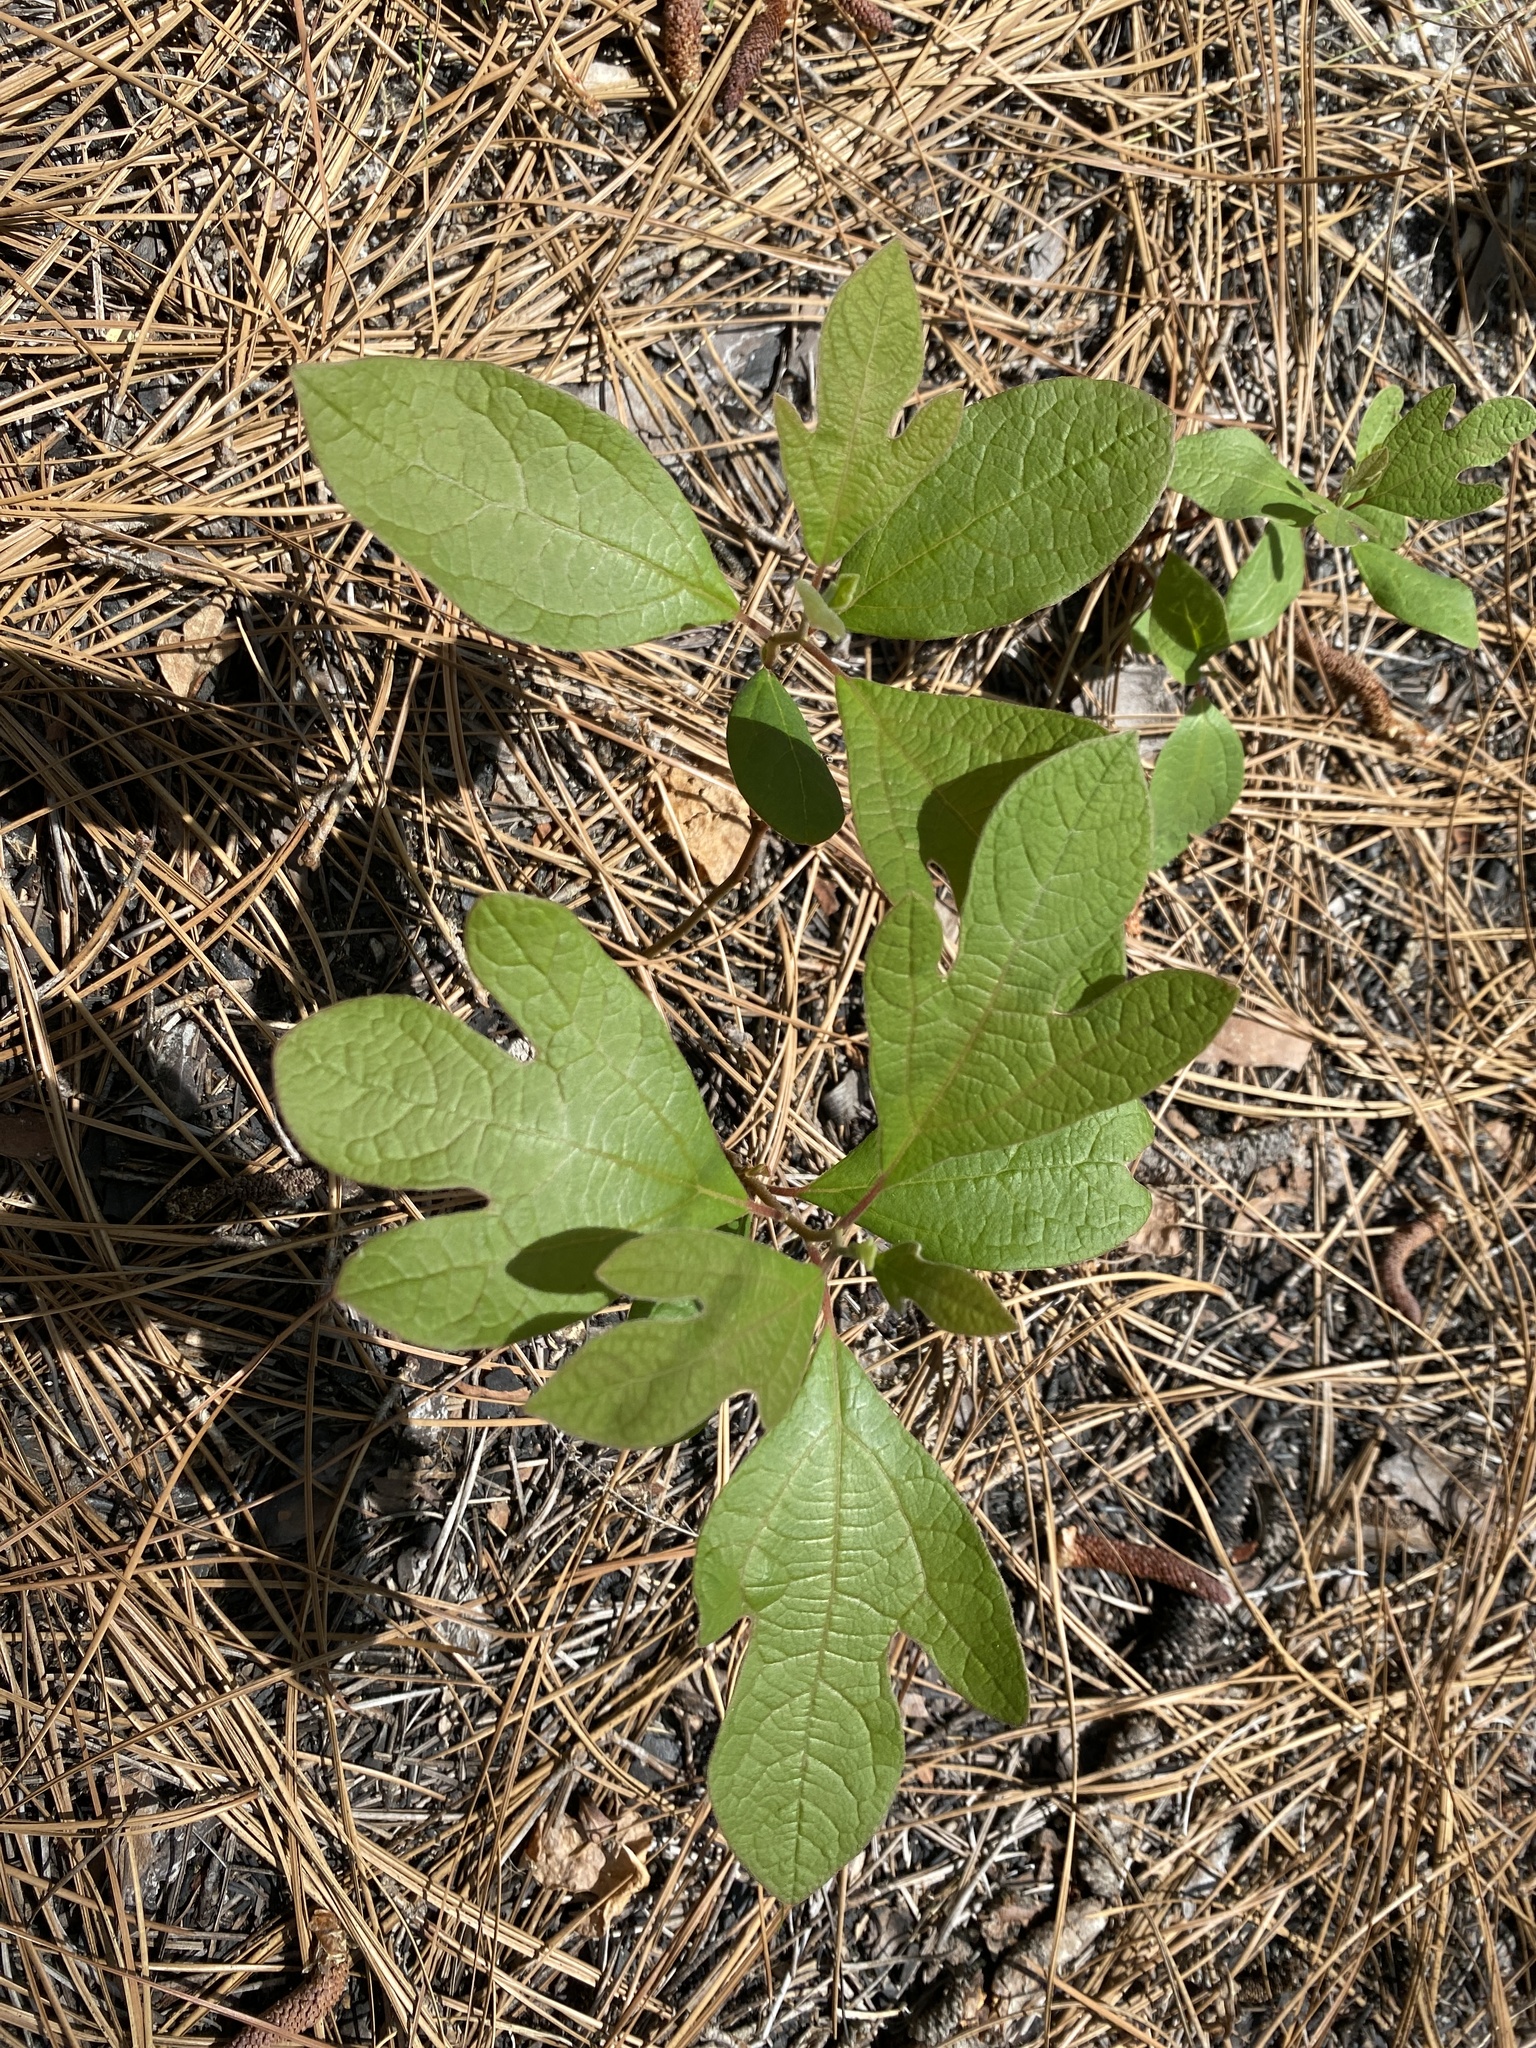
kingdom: Plantae
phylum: Tracheophyta
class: Magnoliopsida
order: Laurales
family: Lauraceae
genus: Sassafras
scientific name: Sassafras albidum
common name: Sassafras
